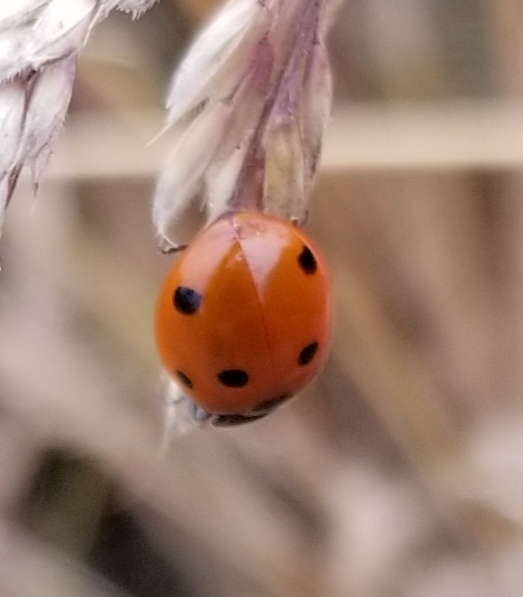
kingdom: Animalia
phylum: Arthropoda
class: Insecta
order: Coleoptera
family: Coccinellidae
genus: Coccinella
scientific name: Coccinella septempunctata
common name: Sevenspotted lady beetle
